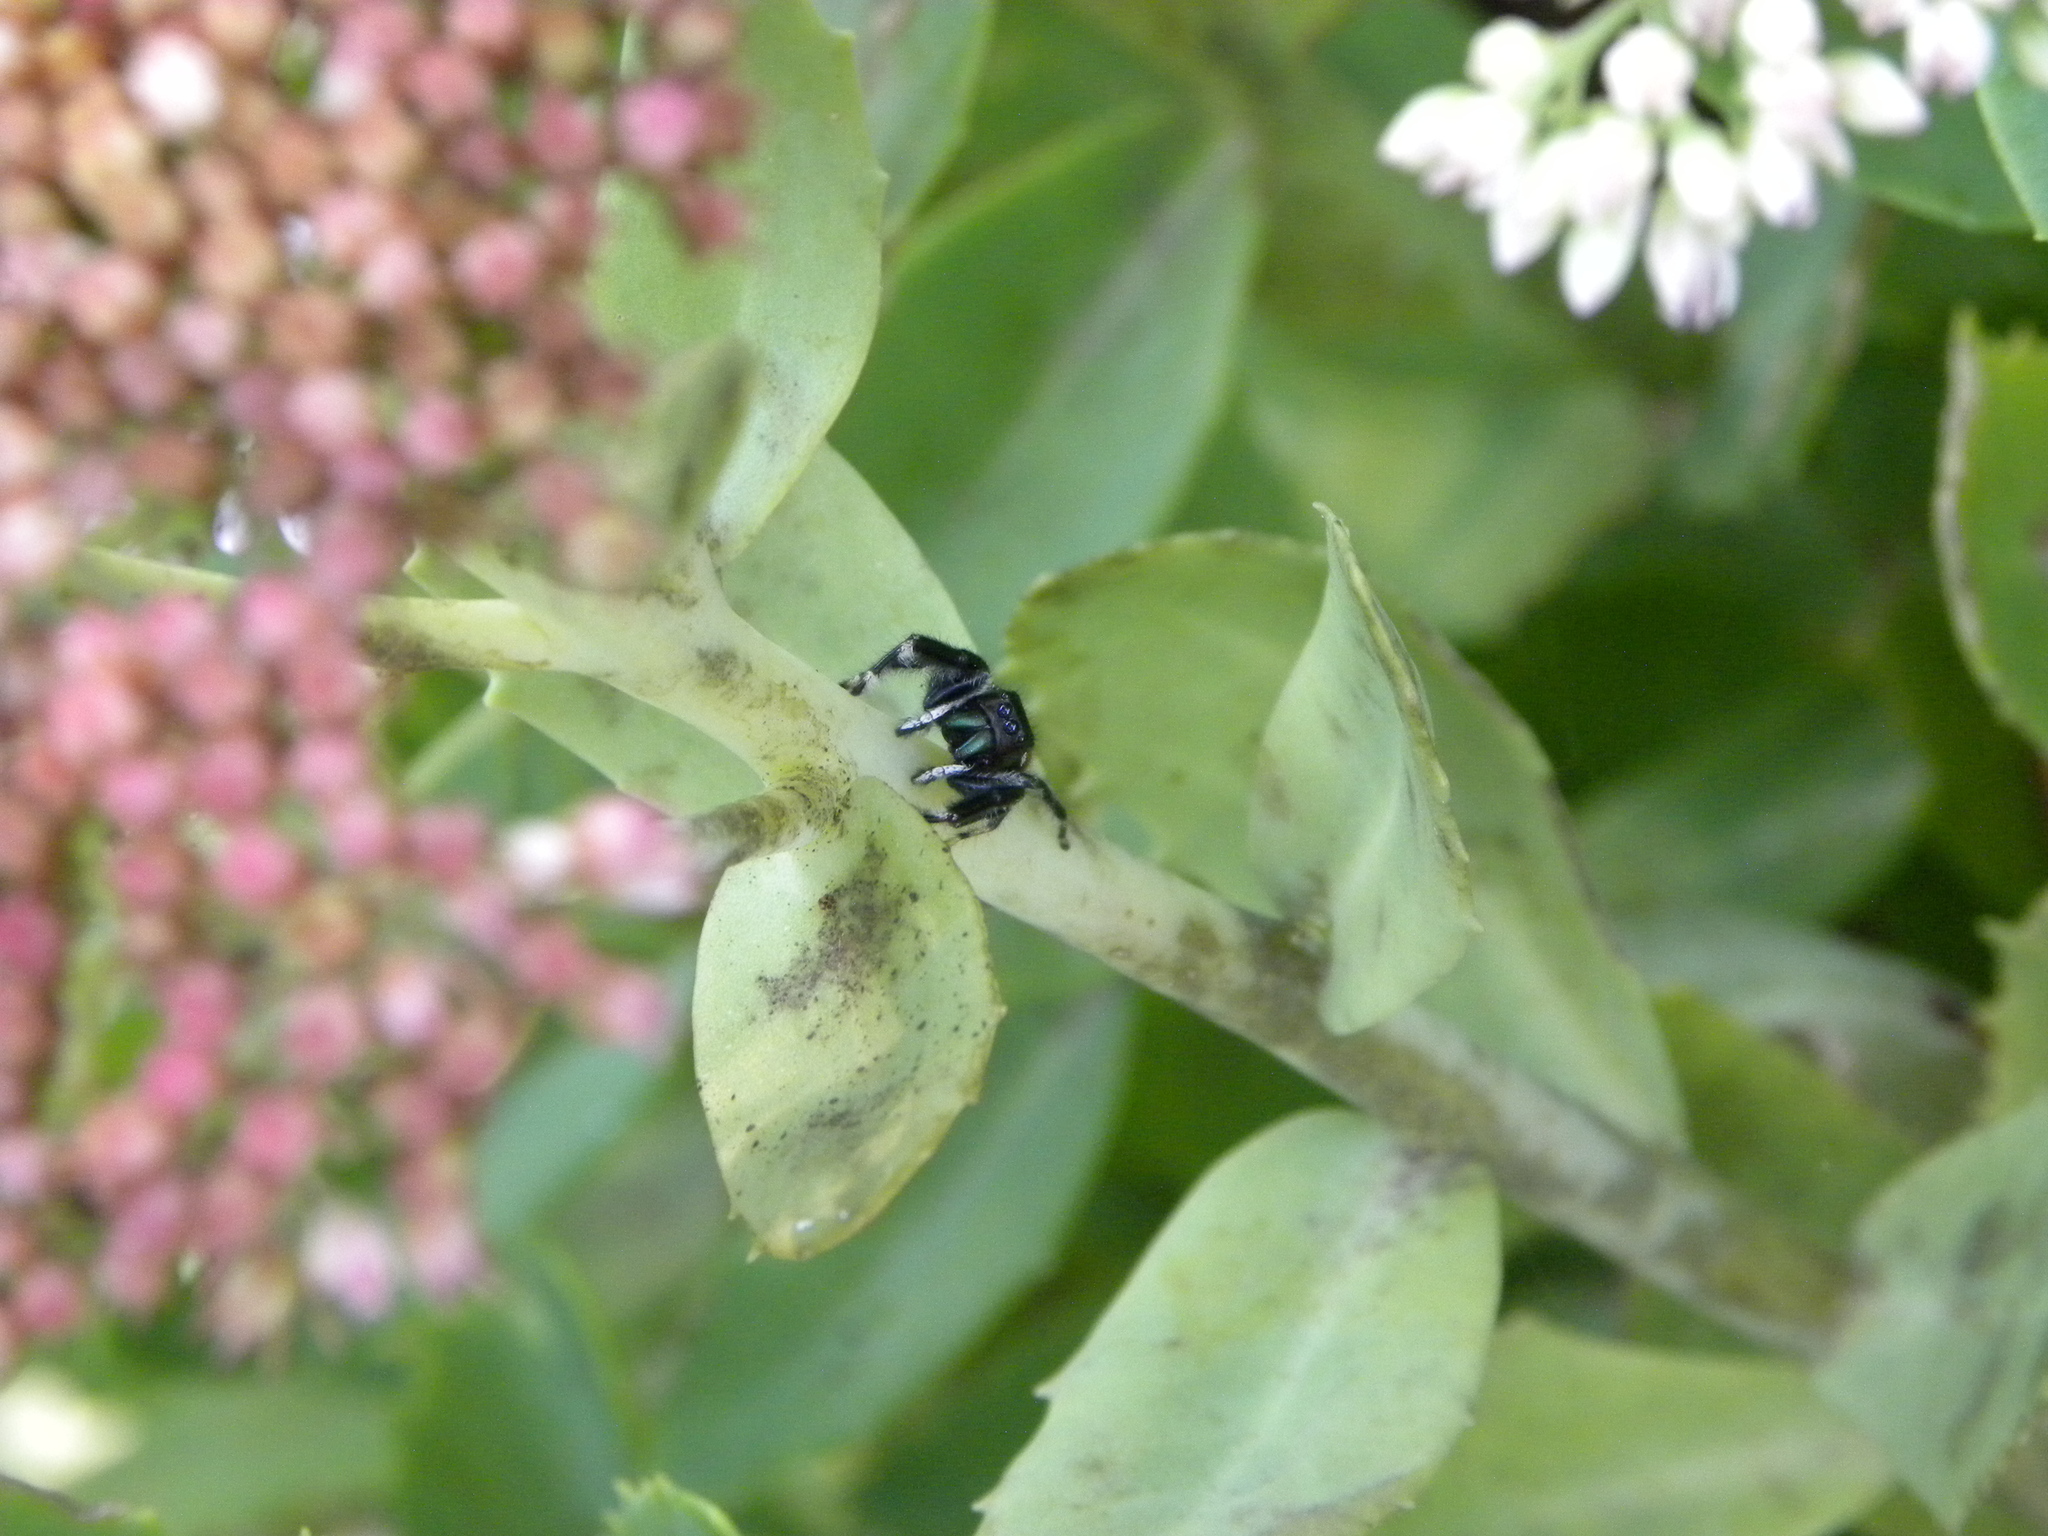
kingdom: Animalia
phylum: Arthropoda
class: Arachnida
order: Araneae
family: Salticidae
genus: Phidippus
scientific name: Phidippus clarus
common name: Brilliant jumping spider
